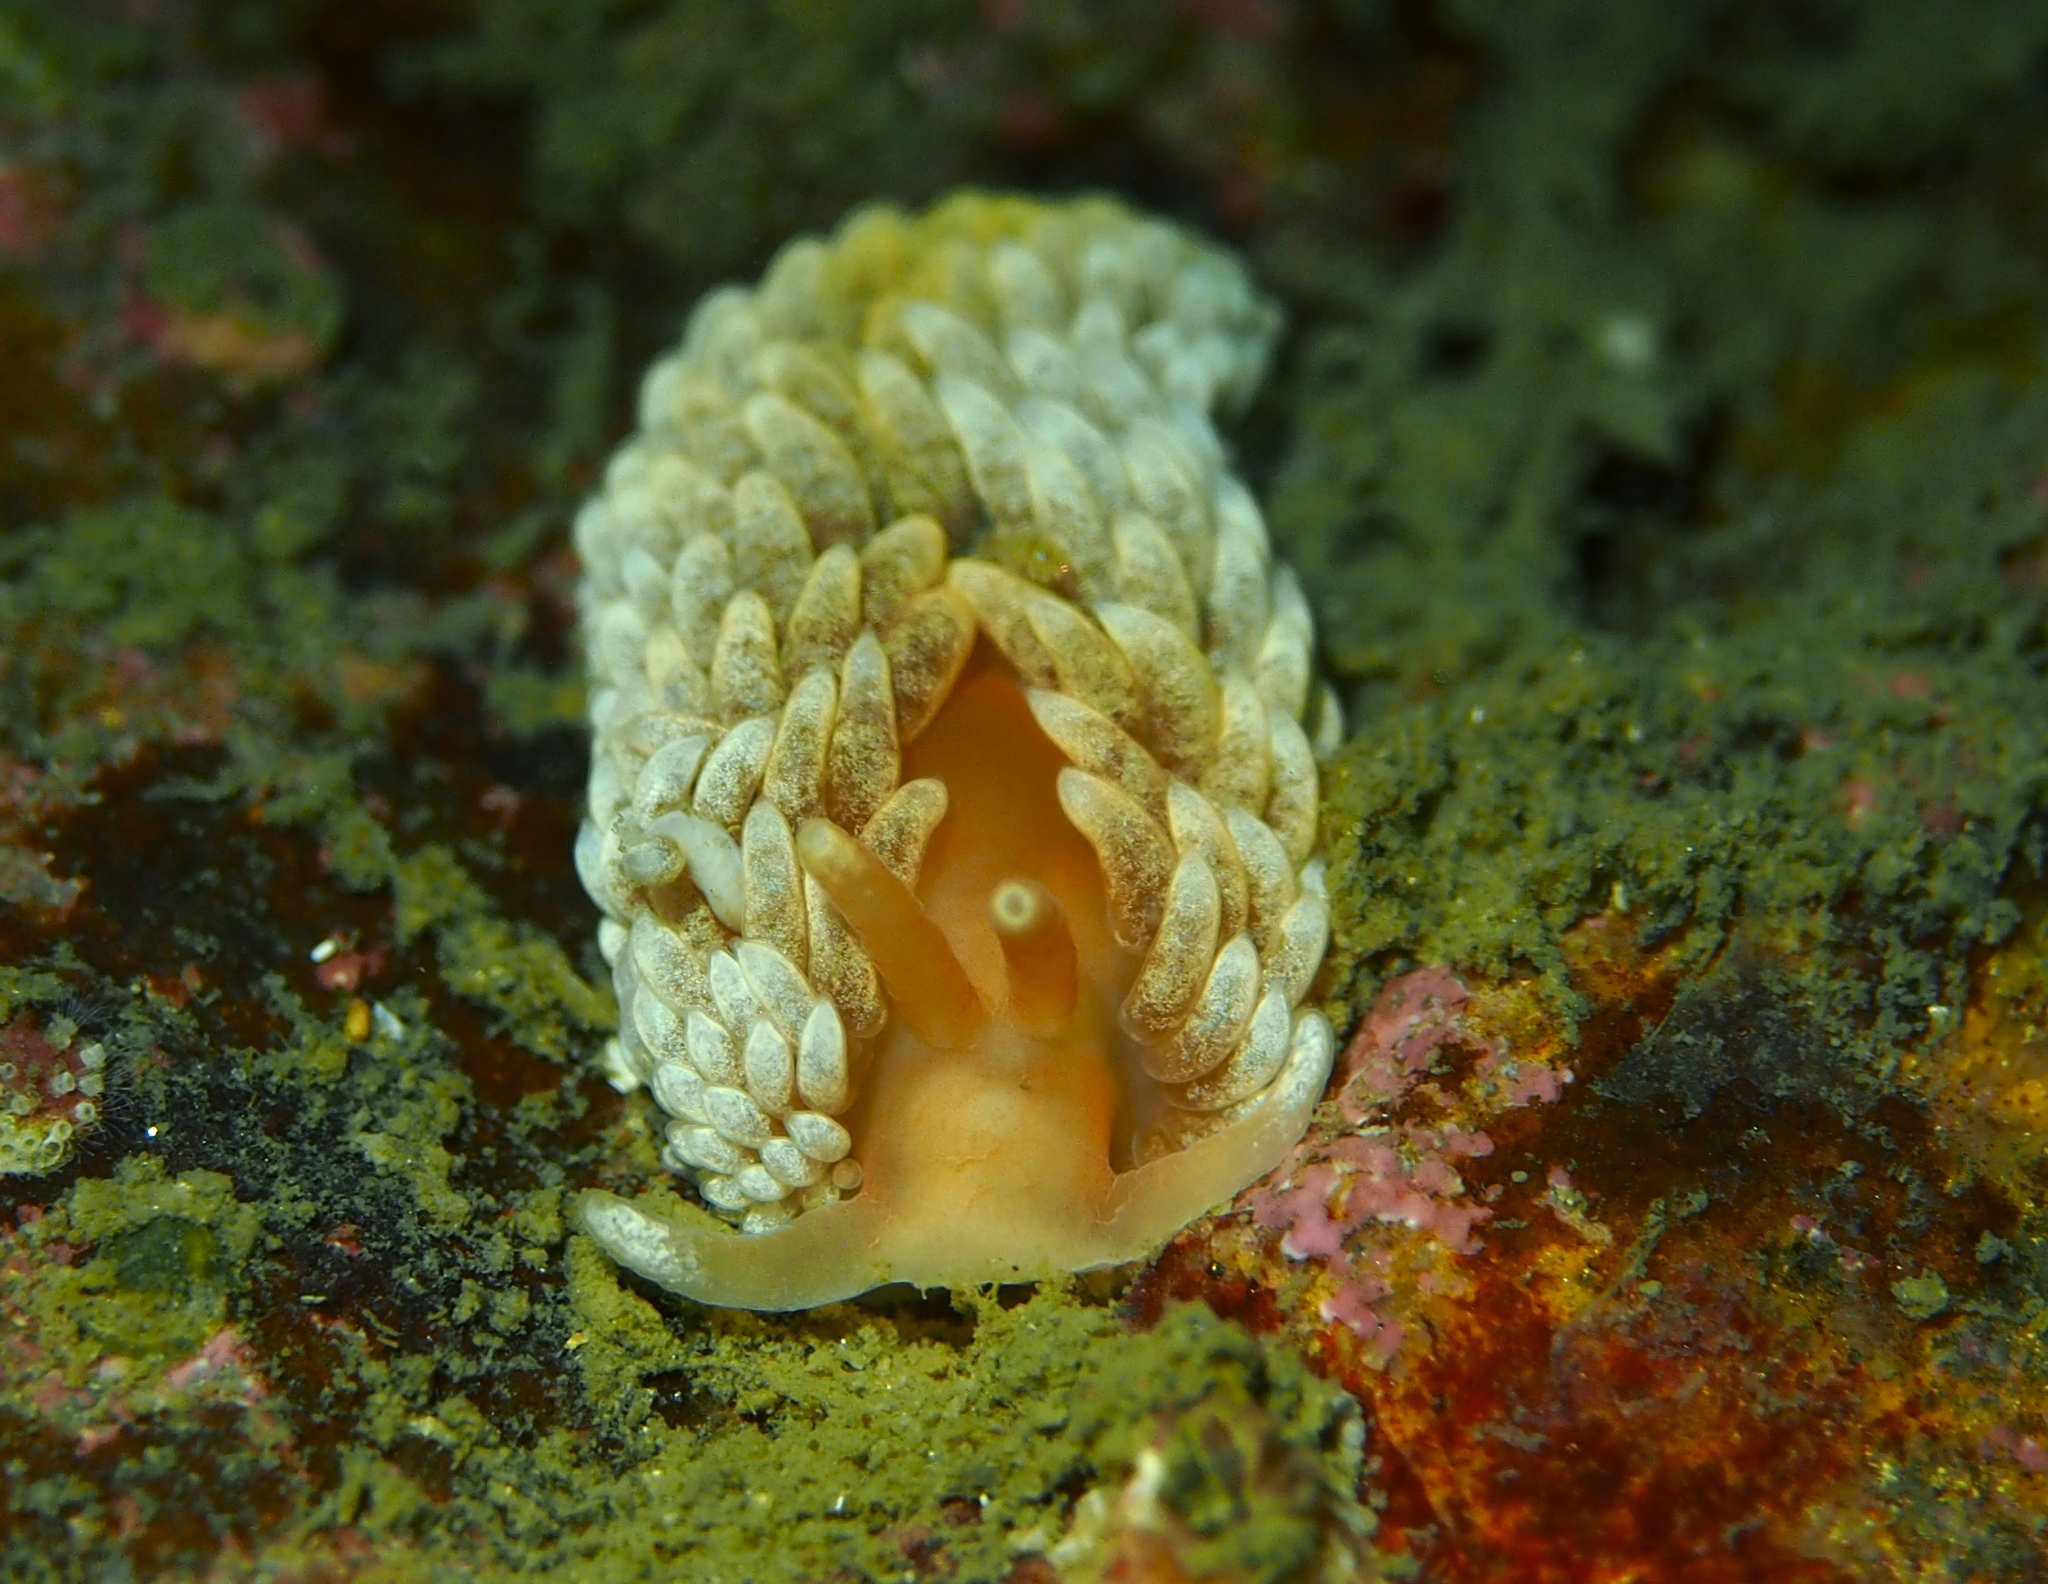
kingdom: Animalia
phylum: Mollusca
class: Gastropoda
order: Nudibranchia
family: Aeolidiidae
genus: Aeolidiella
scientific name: Aeolidiella glauca
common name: Orange-brown aeolid
